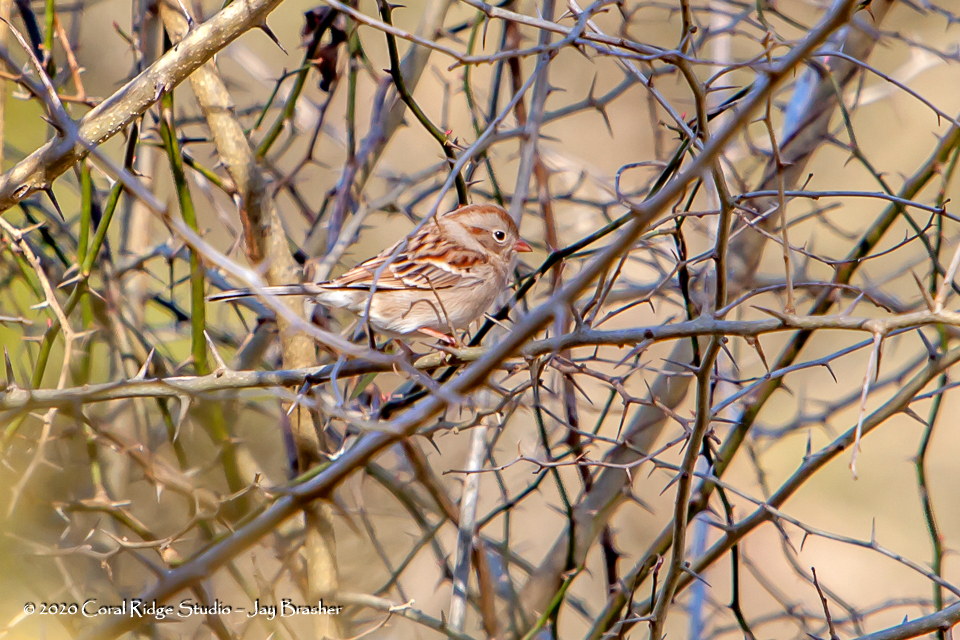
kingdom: Animalia
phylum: Chordata
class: Aves
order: Passeriformes
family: Passerellidae
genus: Spizella
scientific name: Spizella pusilla
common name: Field sparrow
